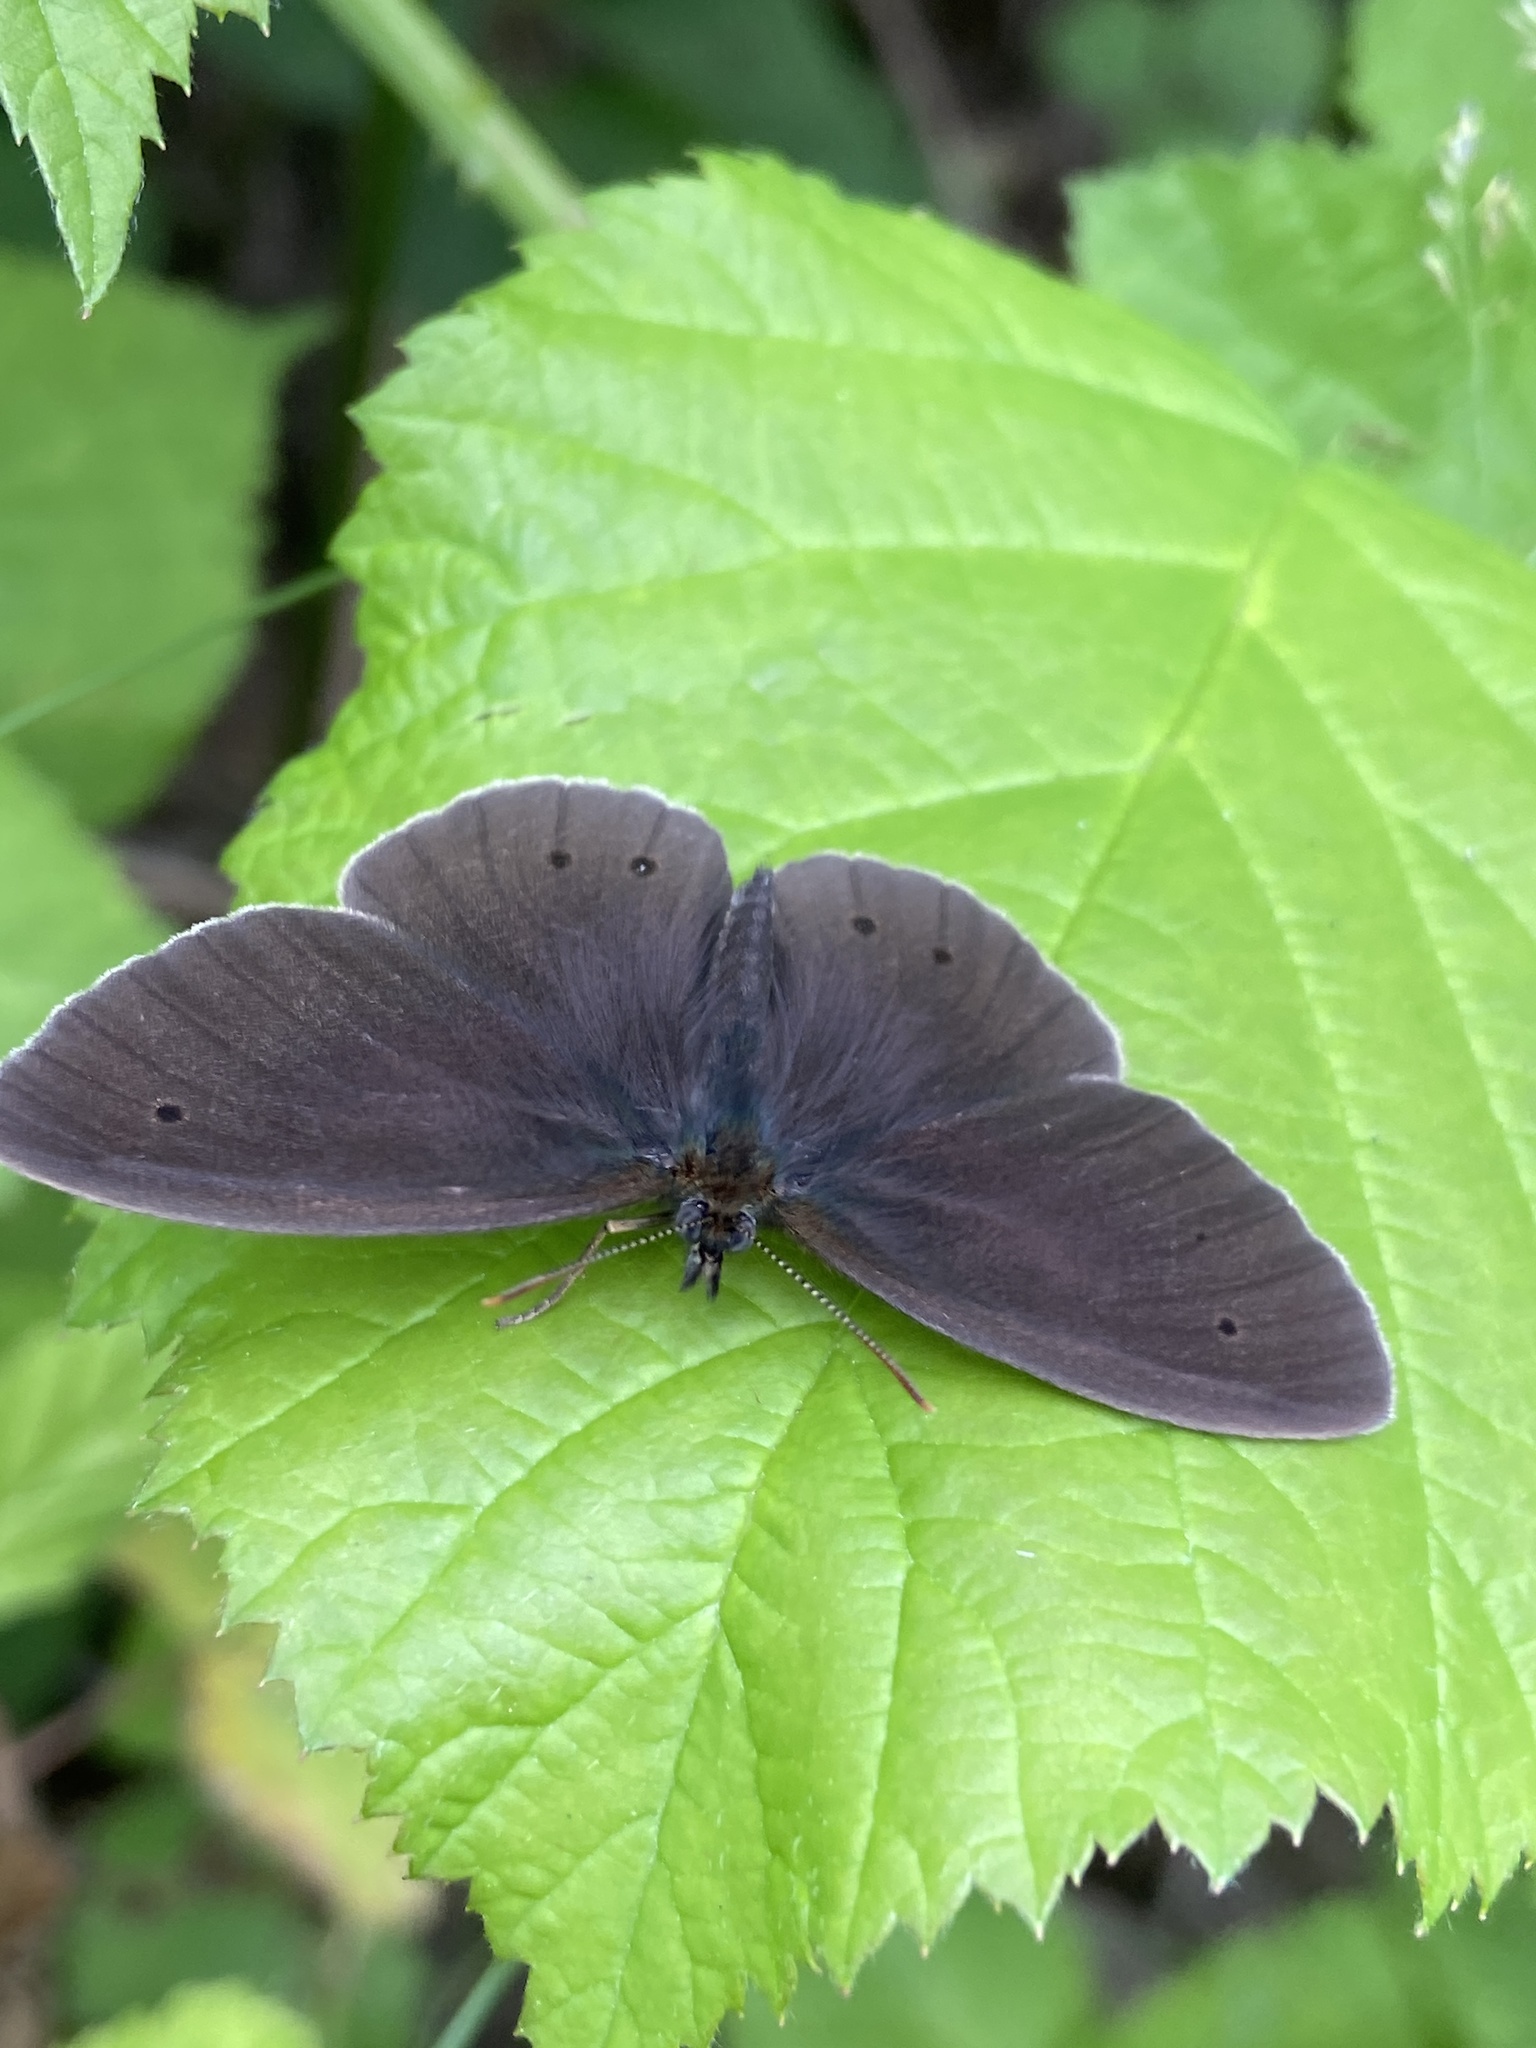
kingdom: Animalia
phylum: Arthropoda
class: Insecta
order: Lepidoptera
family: Nymphalidae
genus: Aphantopus
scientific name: Aphantopus hyperantus
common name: Ringlet
